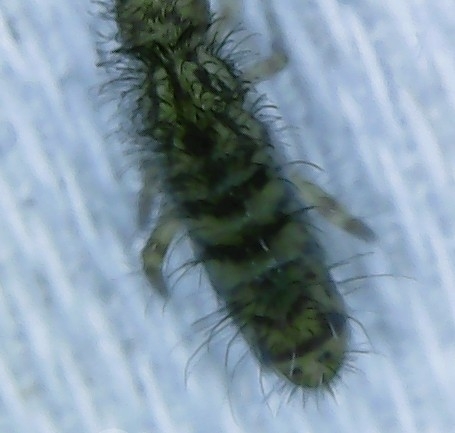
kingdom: Animalia
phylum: Arthropoda
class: Collembola
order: Entomobryomorpha
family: Orchesellidae
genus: Orchesella
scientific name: Orchesella villosa
